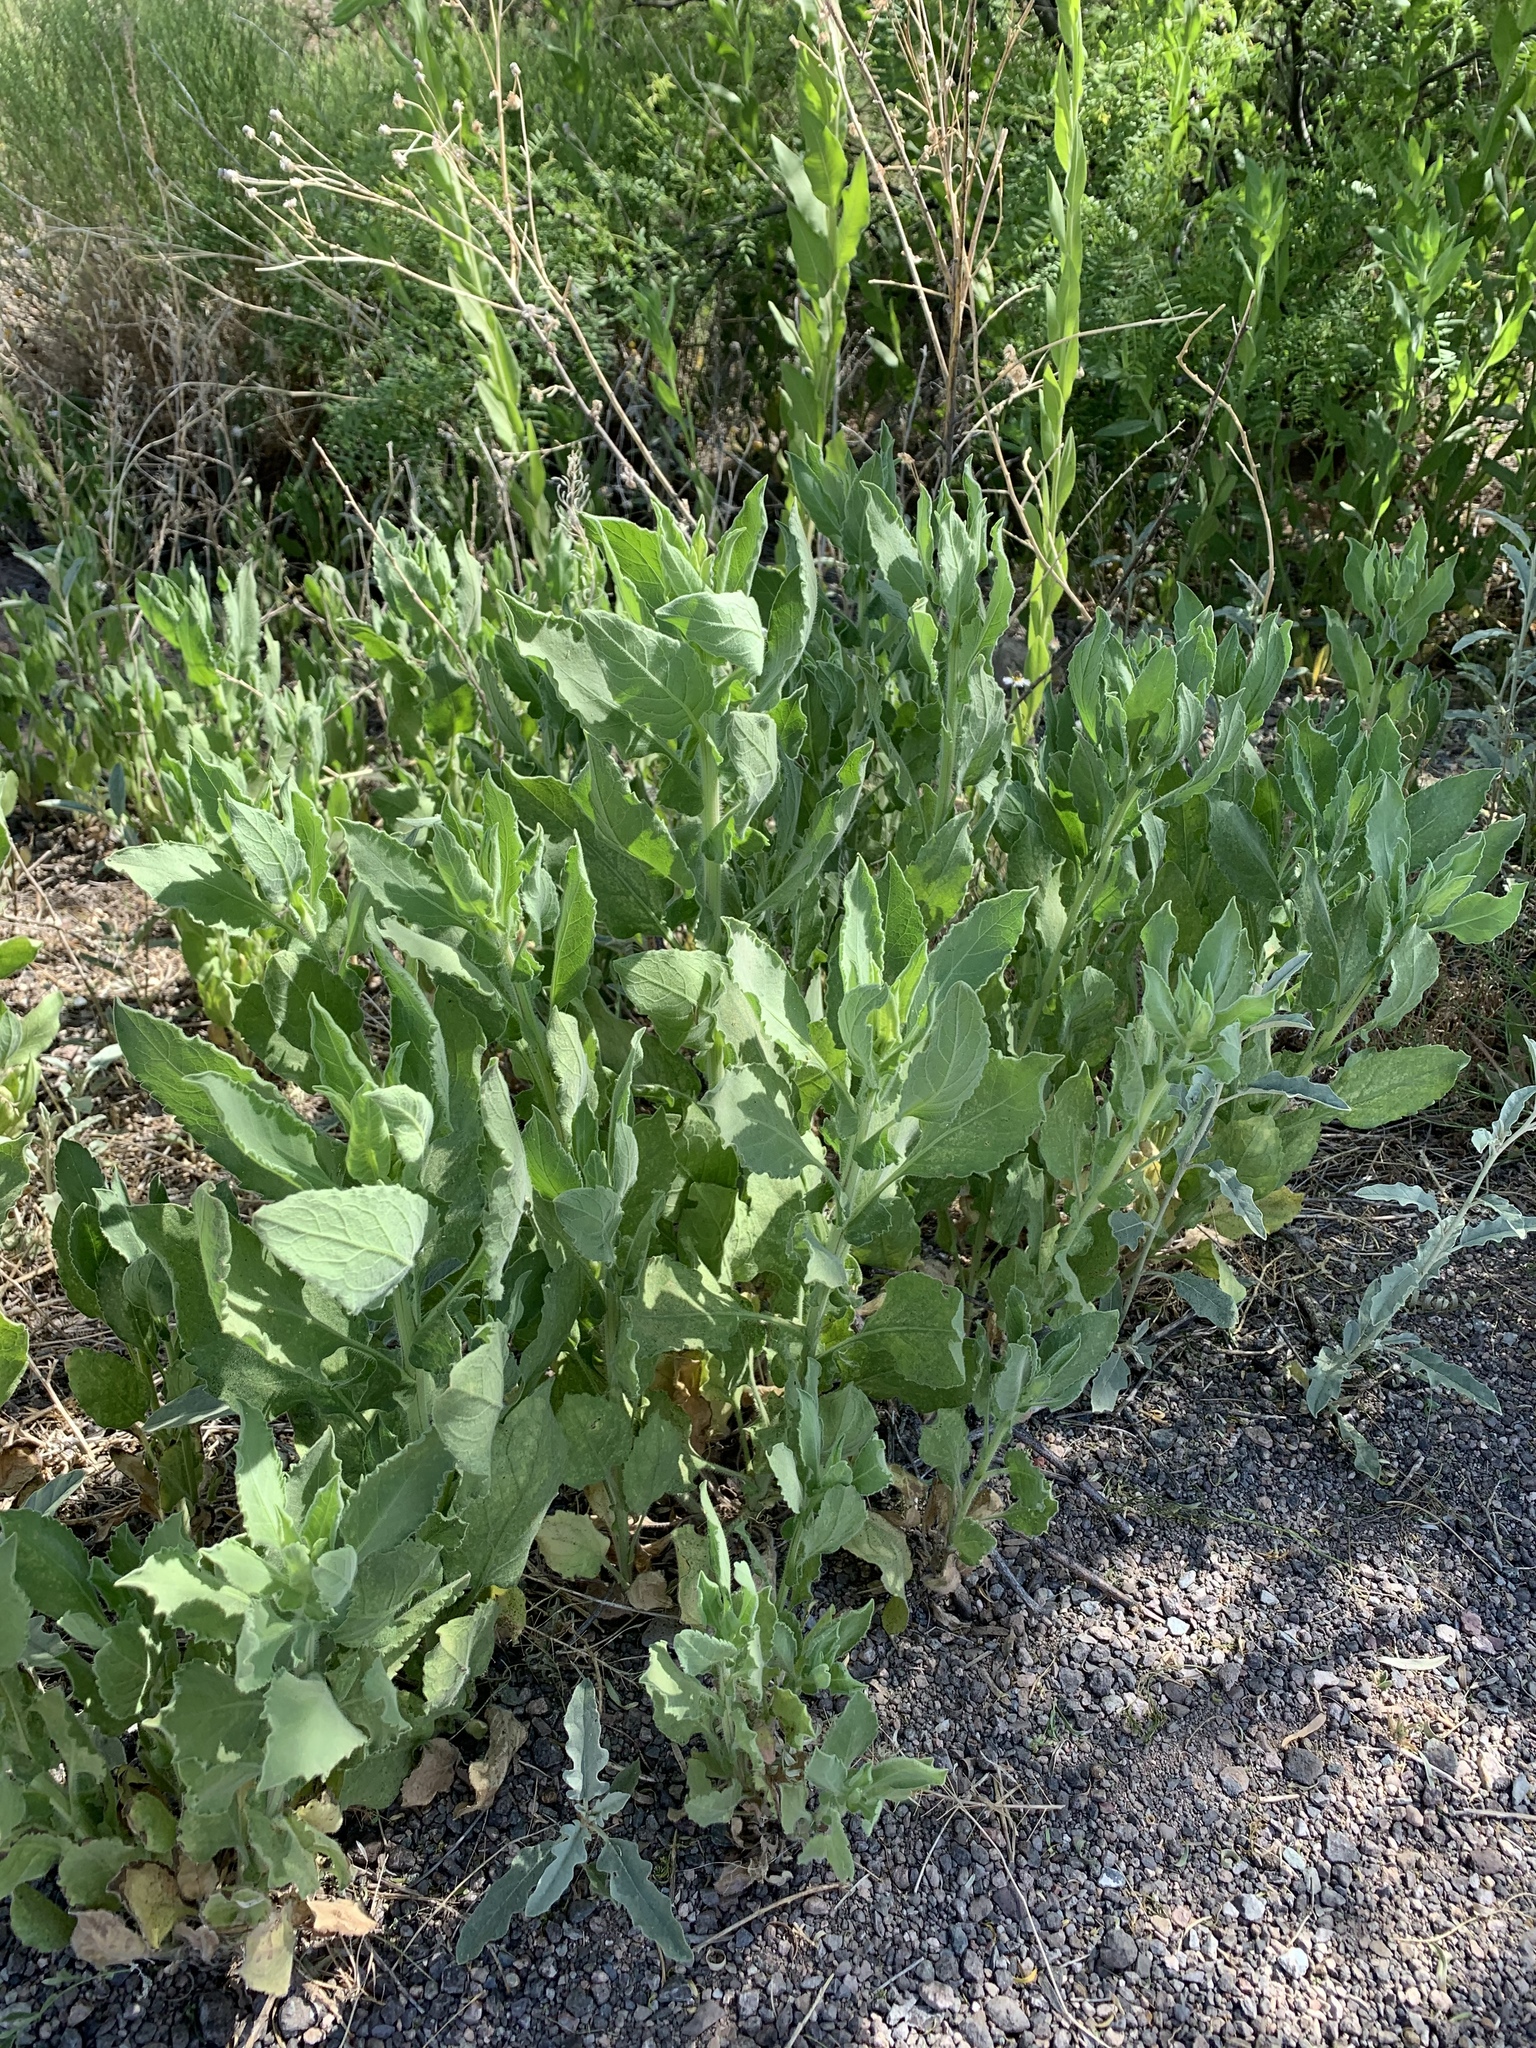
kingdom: Plantae
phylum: Tracheophyta
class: Magnoliopsida
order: Myrtales
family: Onagraceae
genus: Oenothera
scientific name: Oenothera curtiflora
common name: Velvetweed
